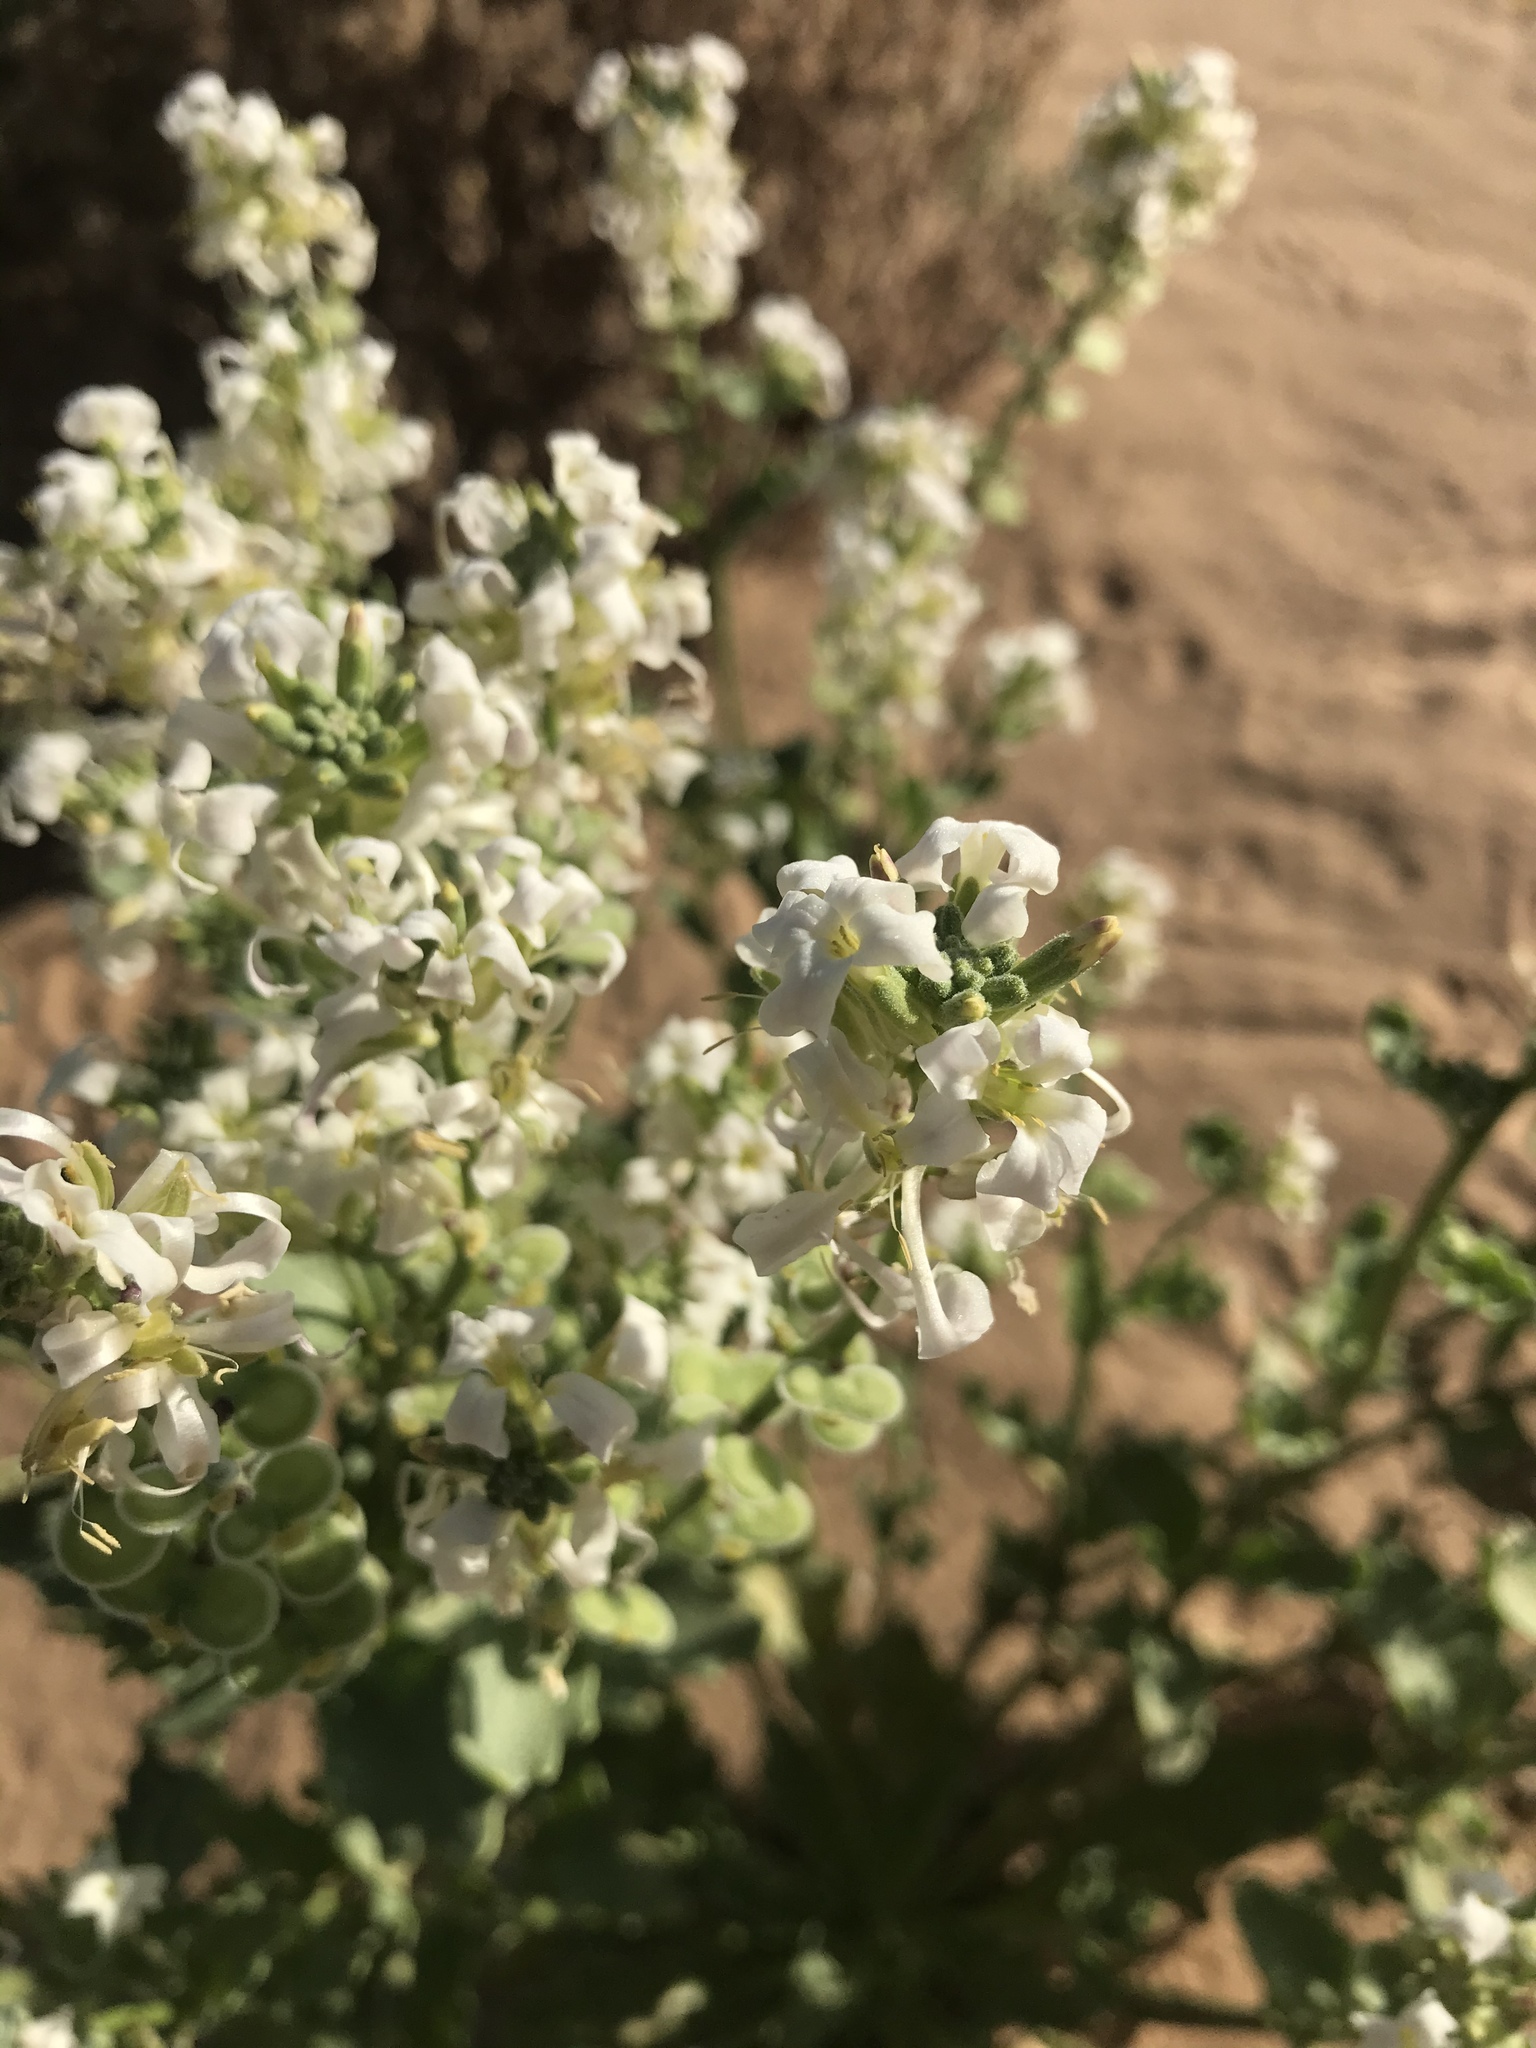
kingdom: Plantae
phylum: Tracheophyta
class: Magnoliopsida
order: Brassicales
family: Brassicaceae
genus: Dithyrea
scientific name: Dithyrea californica
